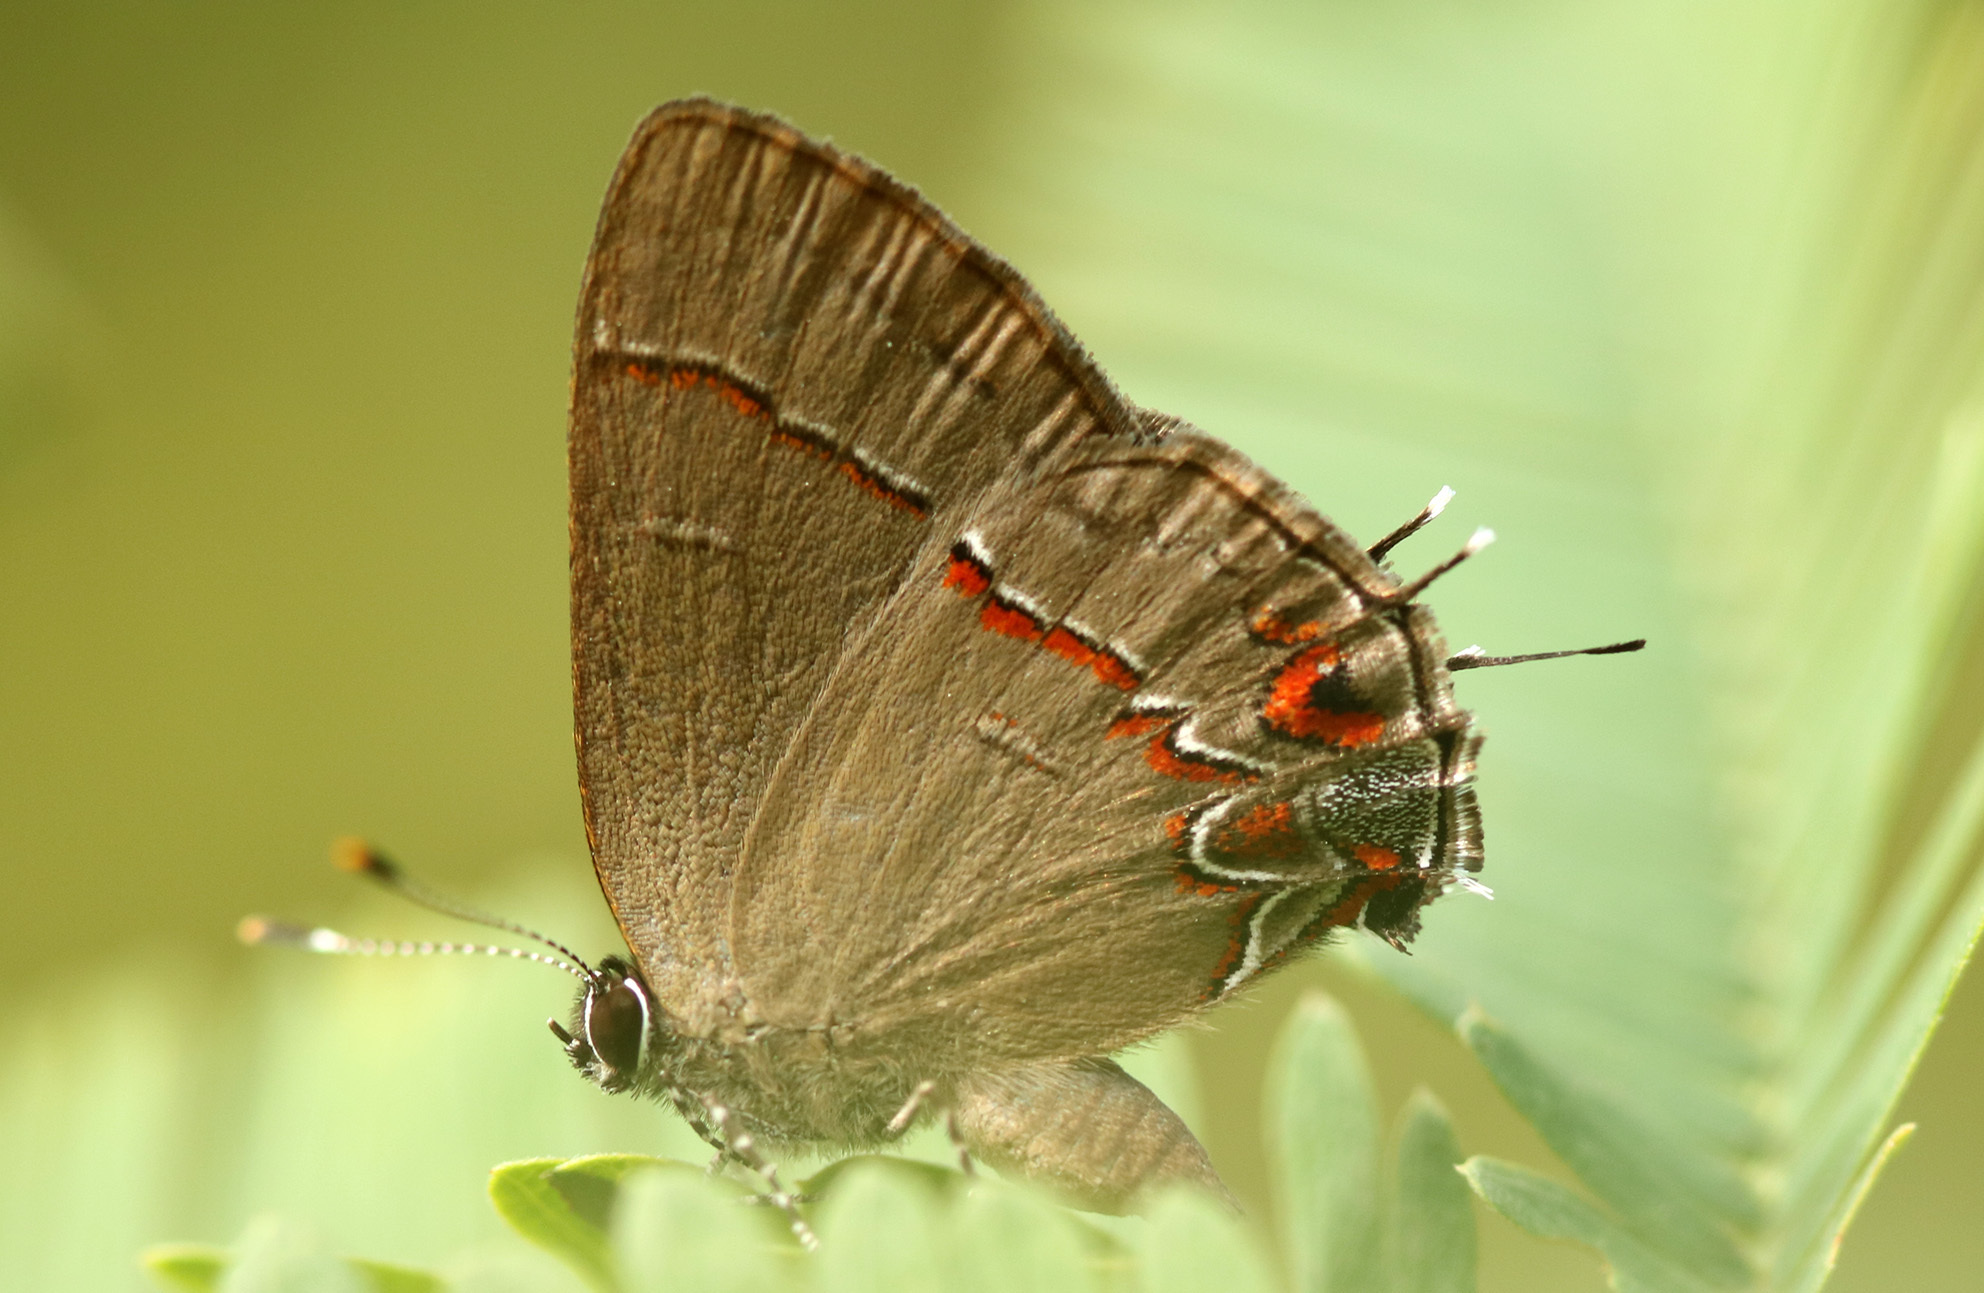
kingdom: Animalia
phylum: Arthropoda
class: Insecta
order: Lepidoptera
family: Lycaenidae
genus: Calycopis
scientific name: Calycopis caulonia
